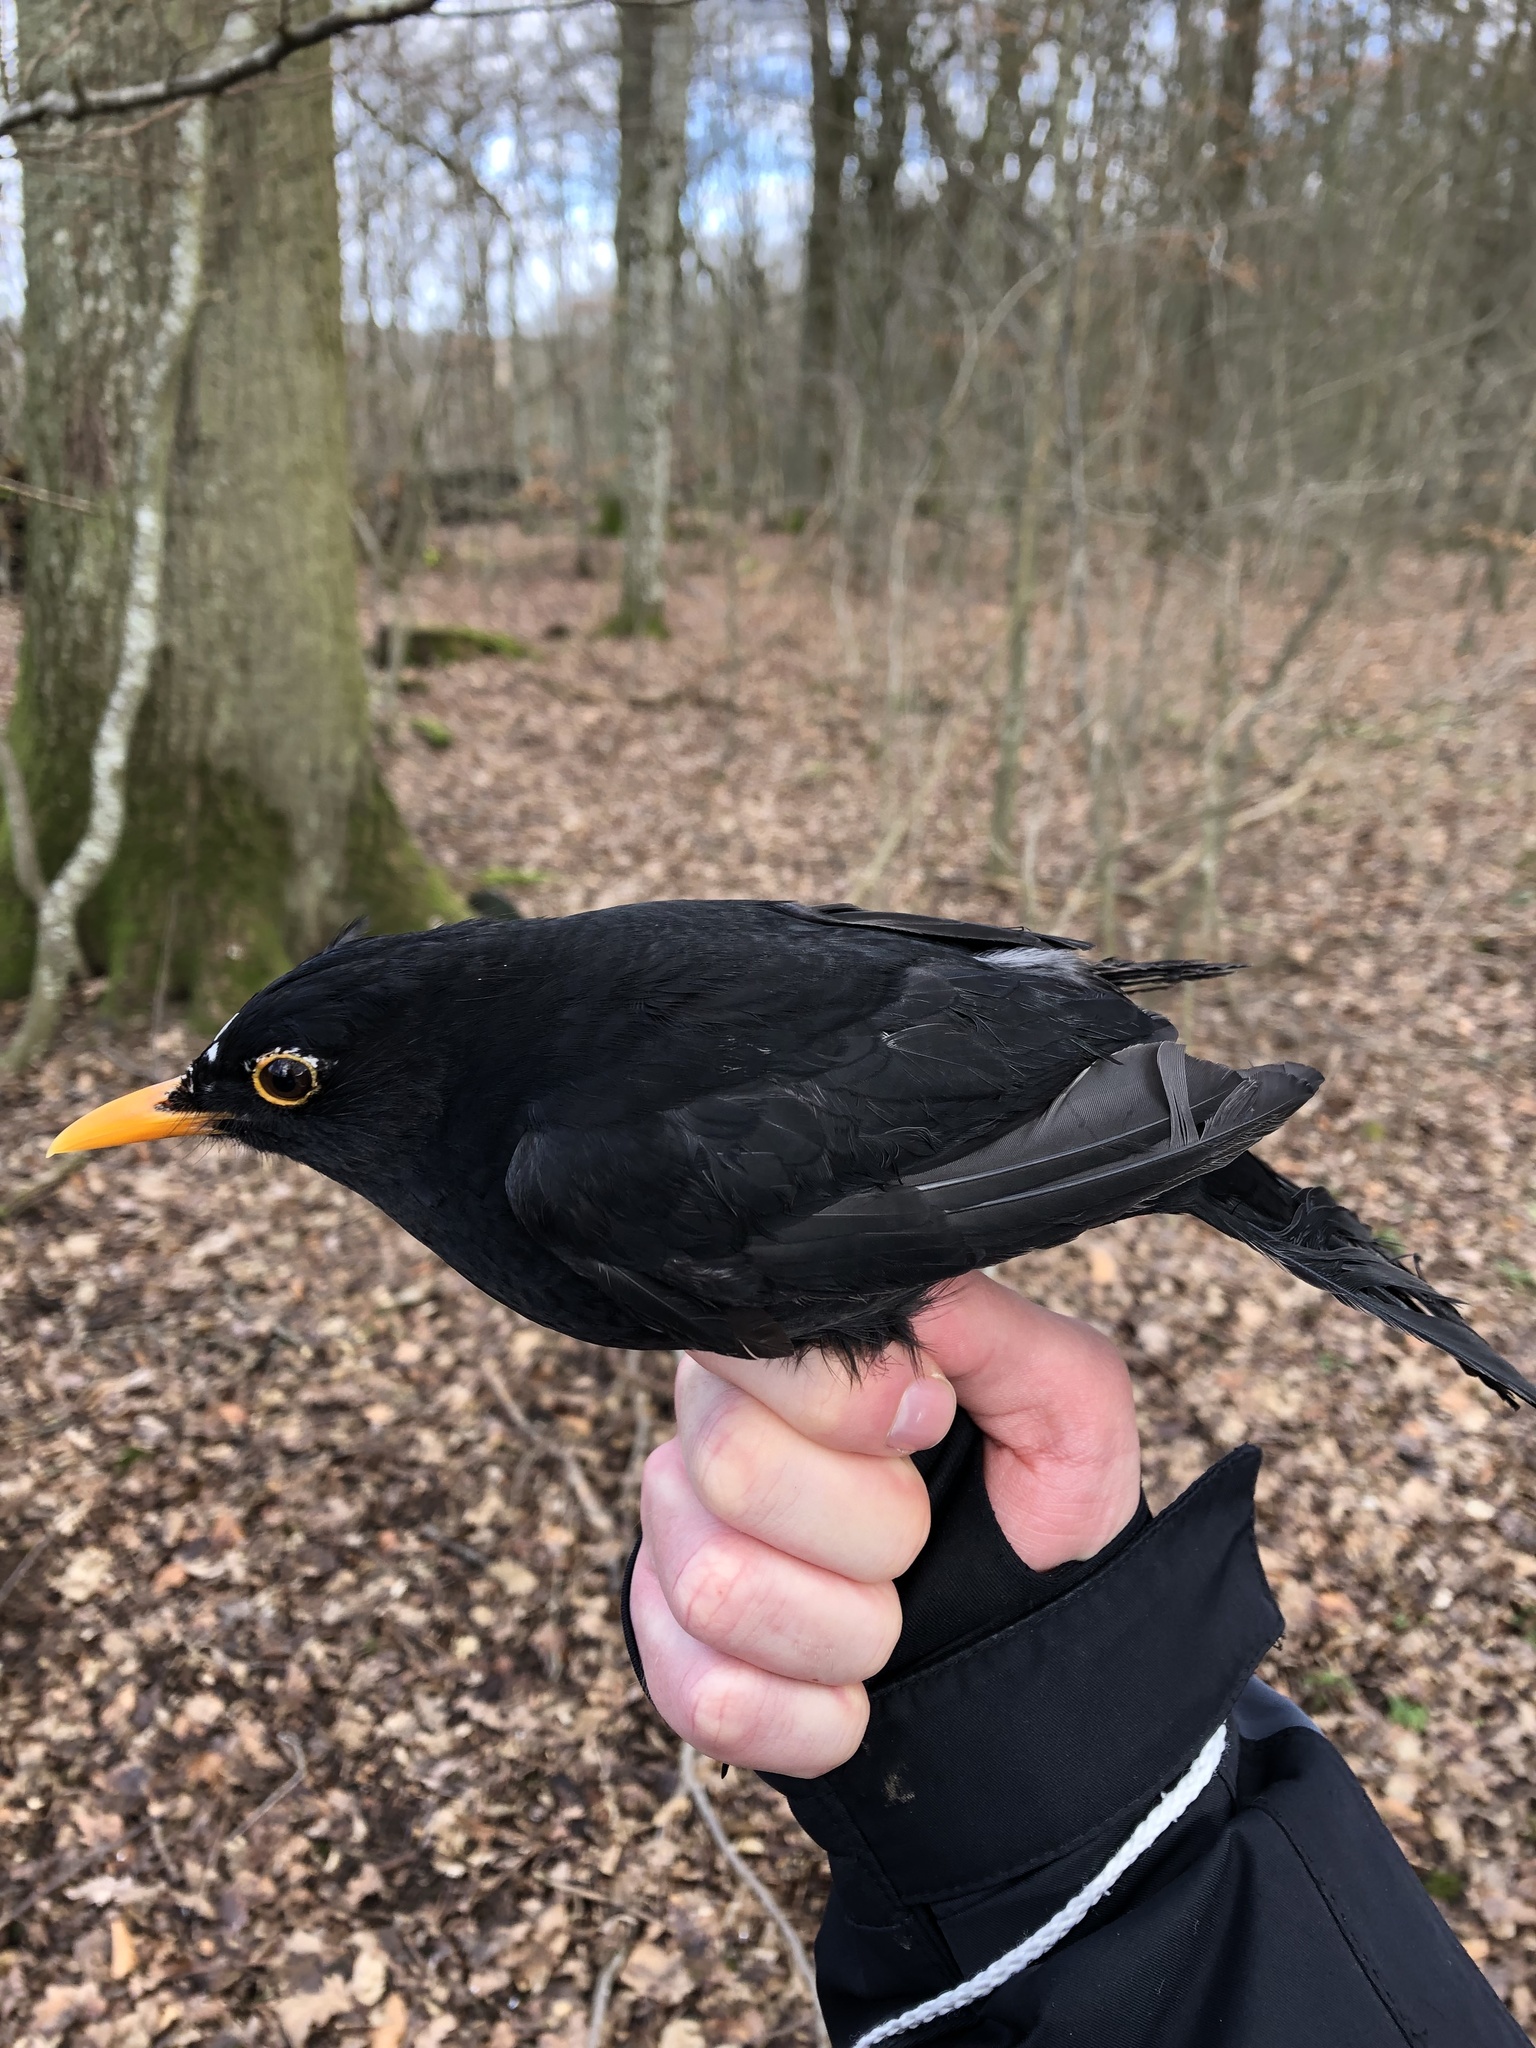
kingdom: Animalia
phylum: Chordata
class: Aves
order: Passeriformes
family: Turdidae
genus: Turdus
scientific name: Turdus merula
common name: Common blackbird
